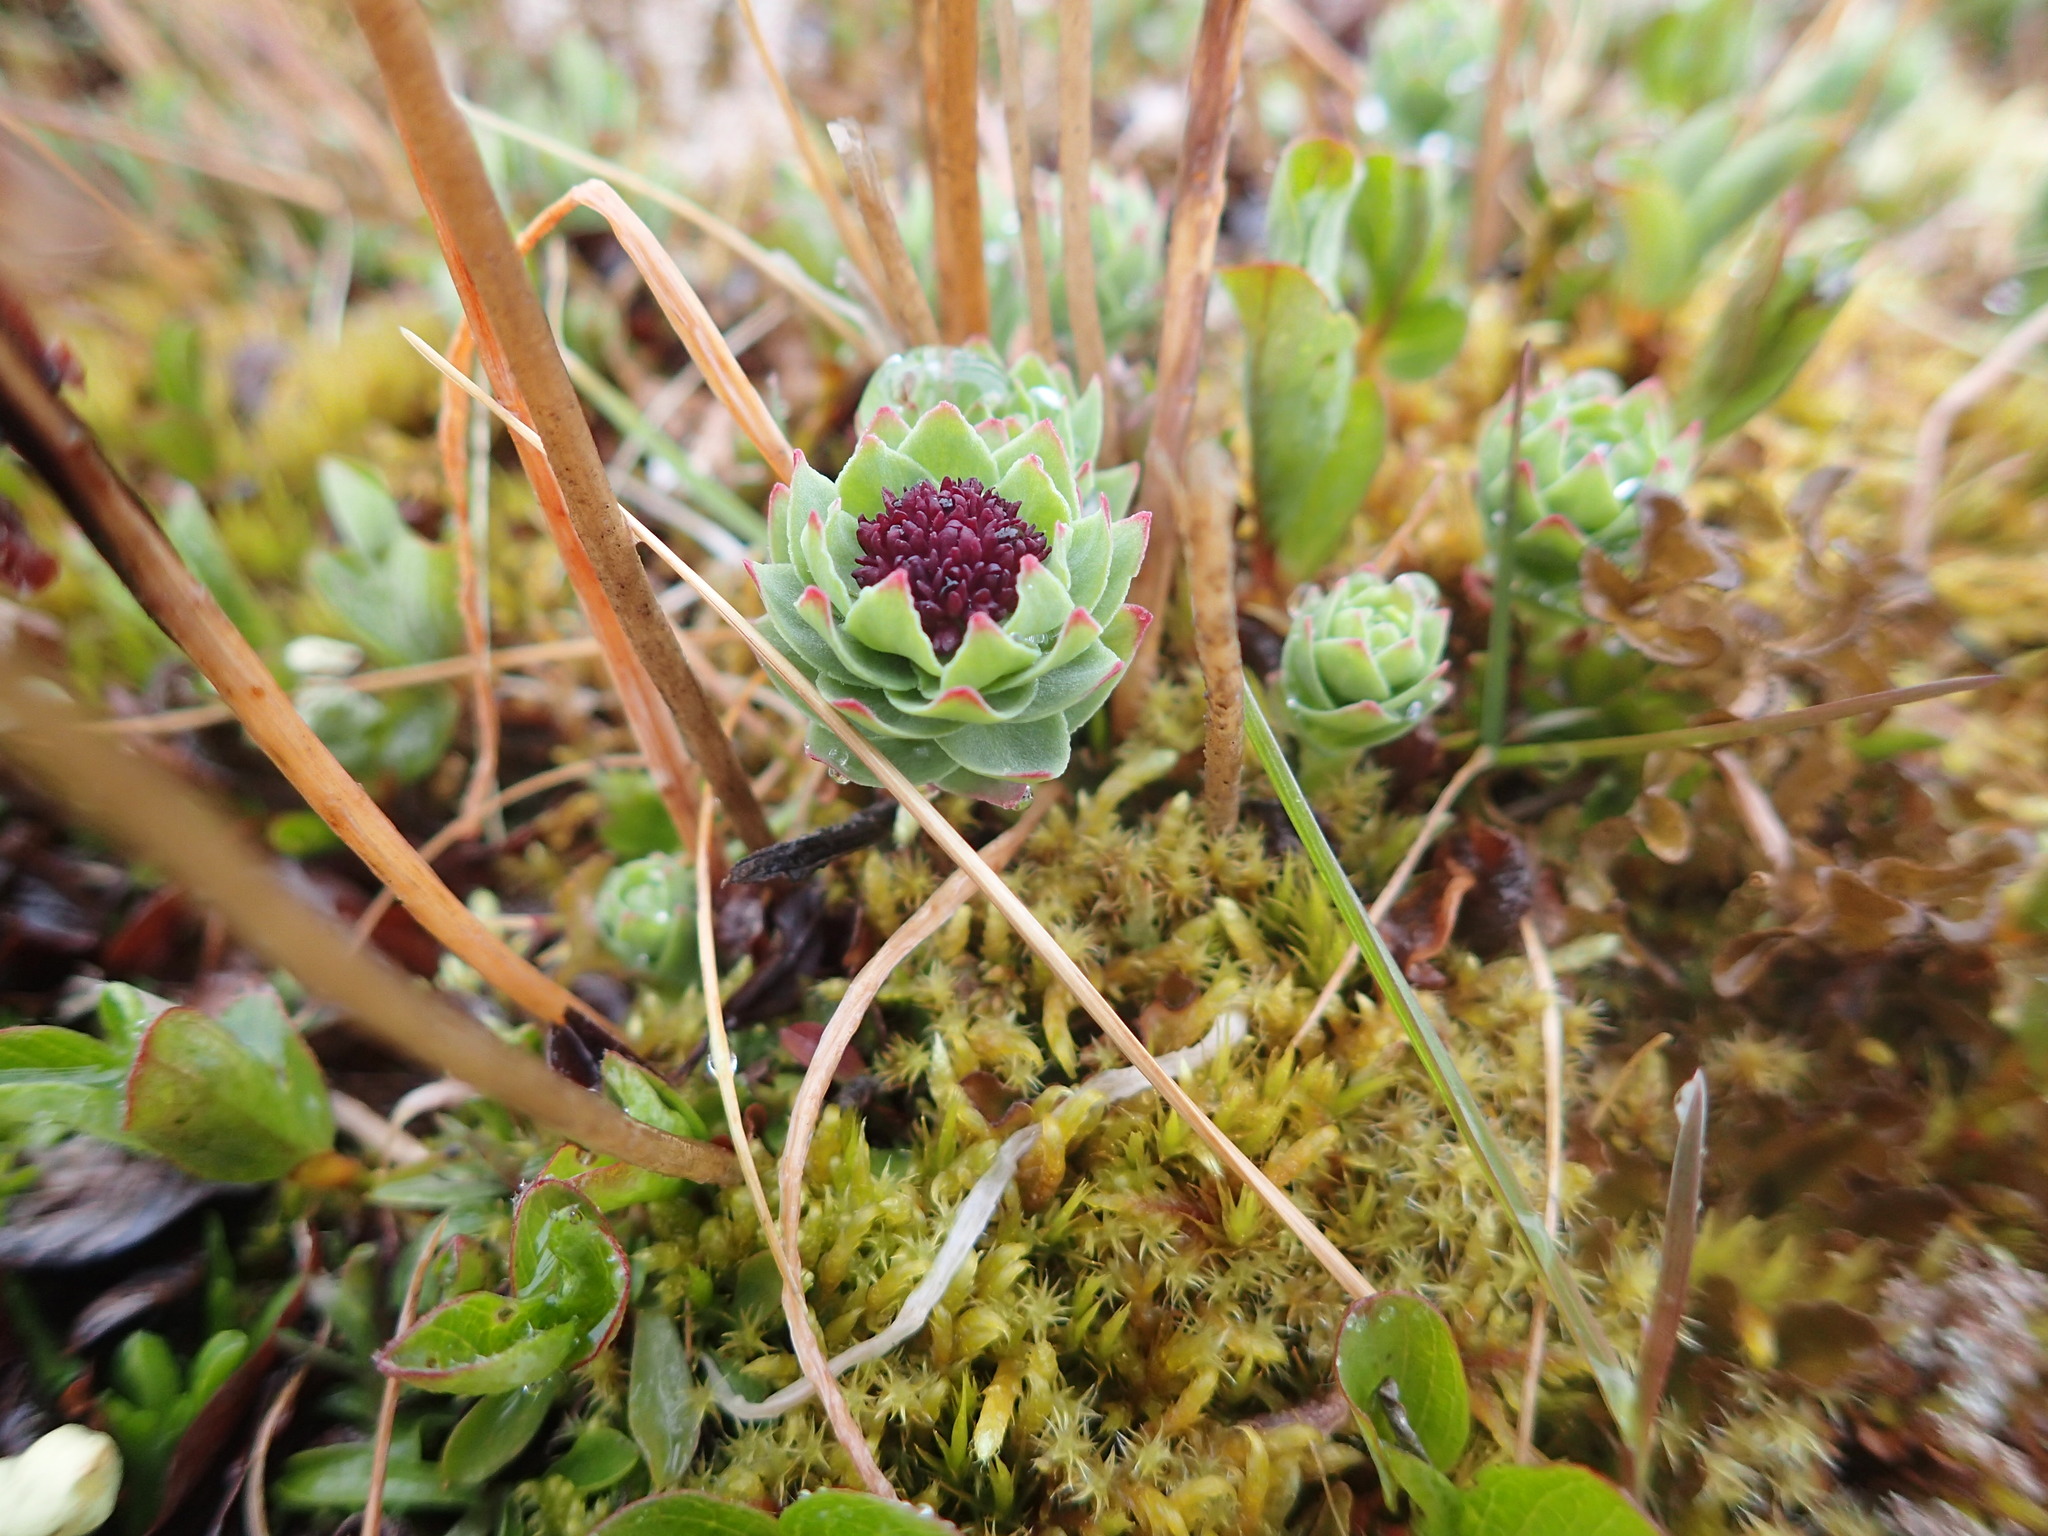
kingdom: Plantae
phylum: Tracheophyta
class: Magnoliopsida
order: Saxifragales
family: Crassulaceae
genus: Rhodiola
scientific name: Rhodiola integrifolia
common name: Western roseroot
